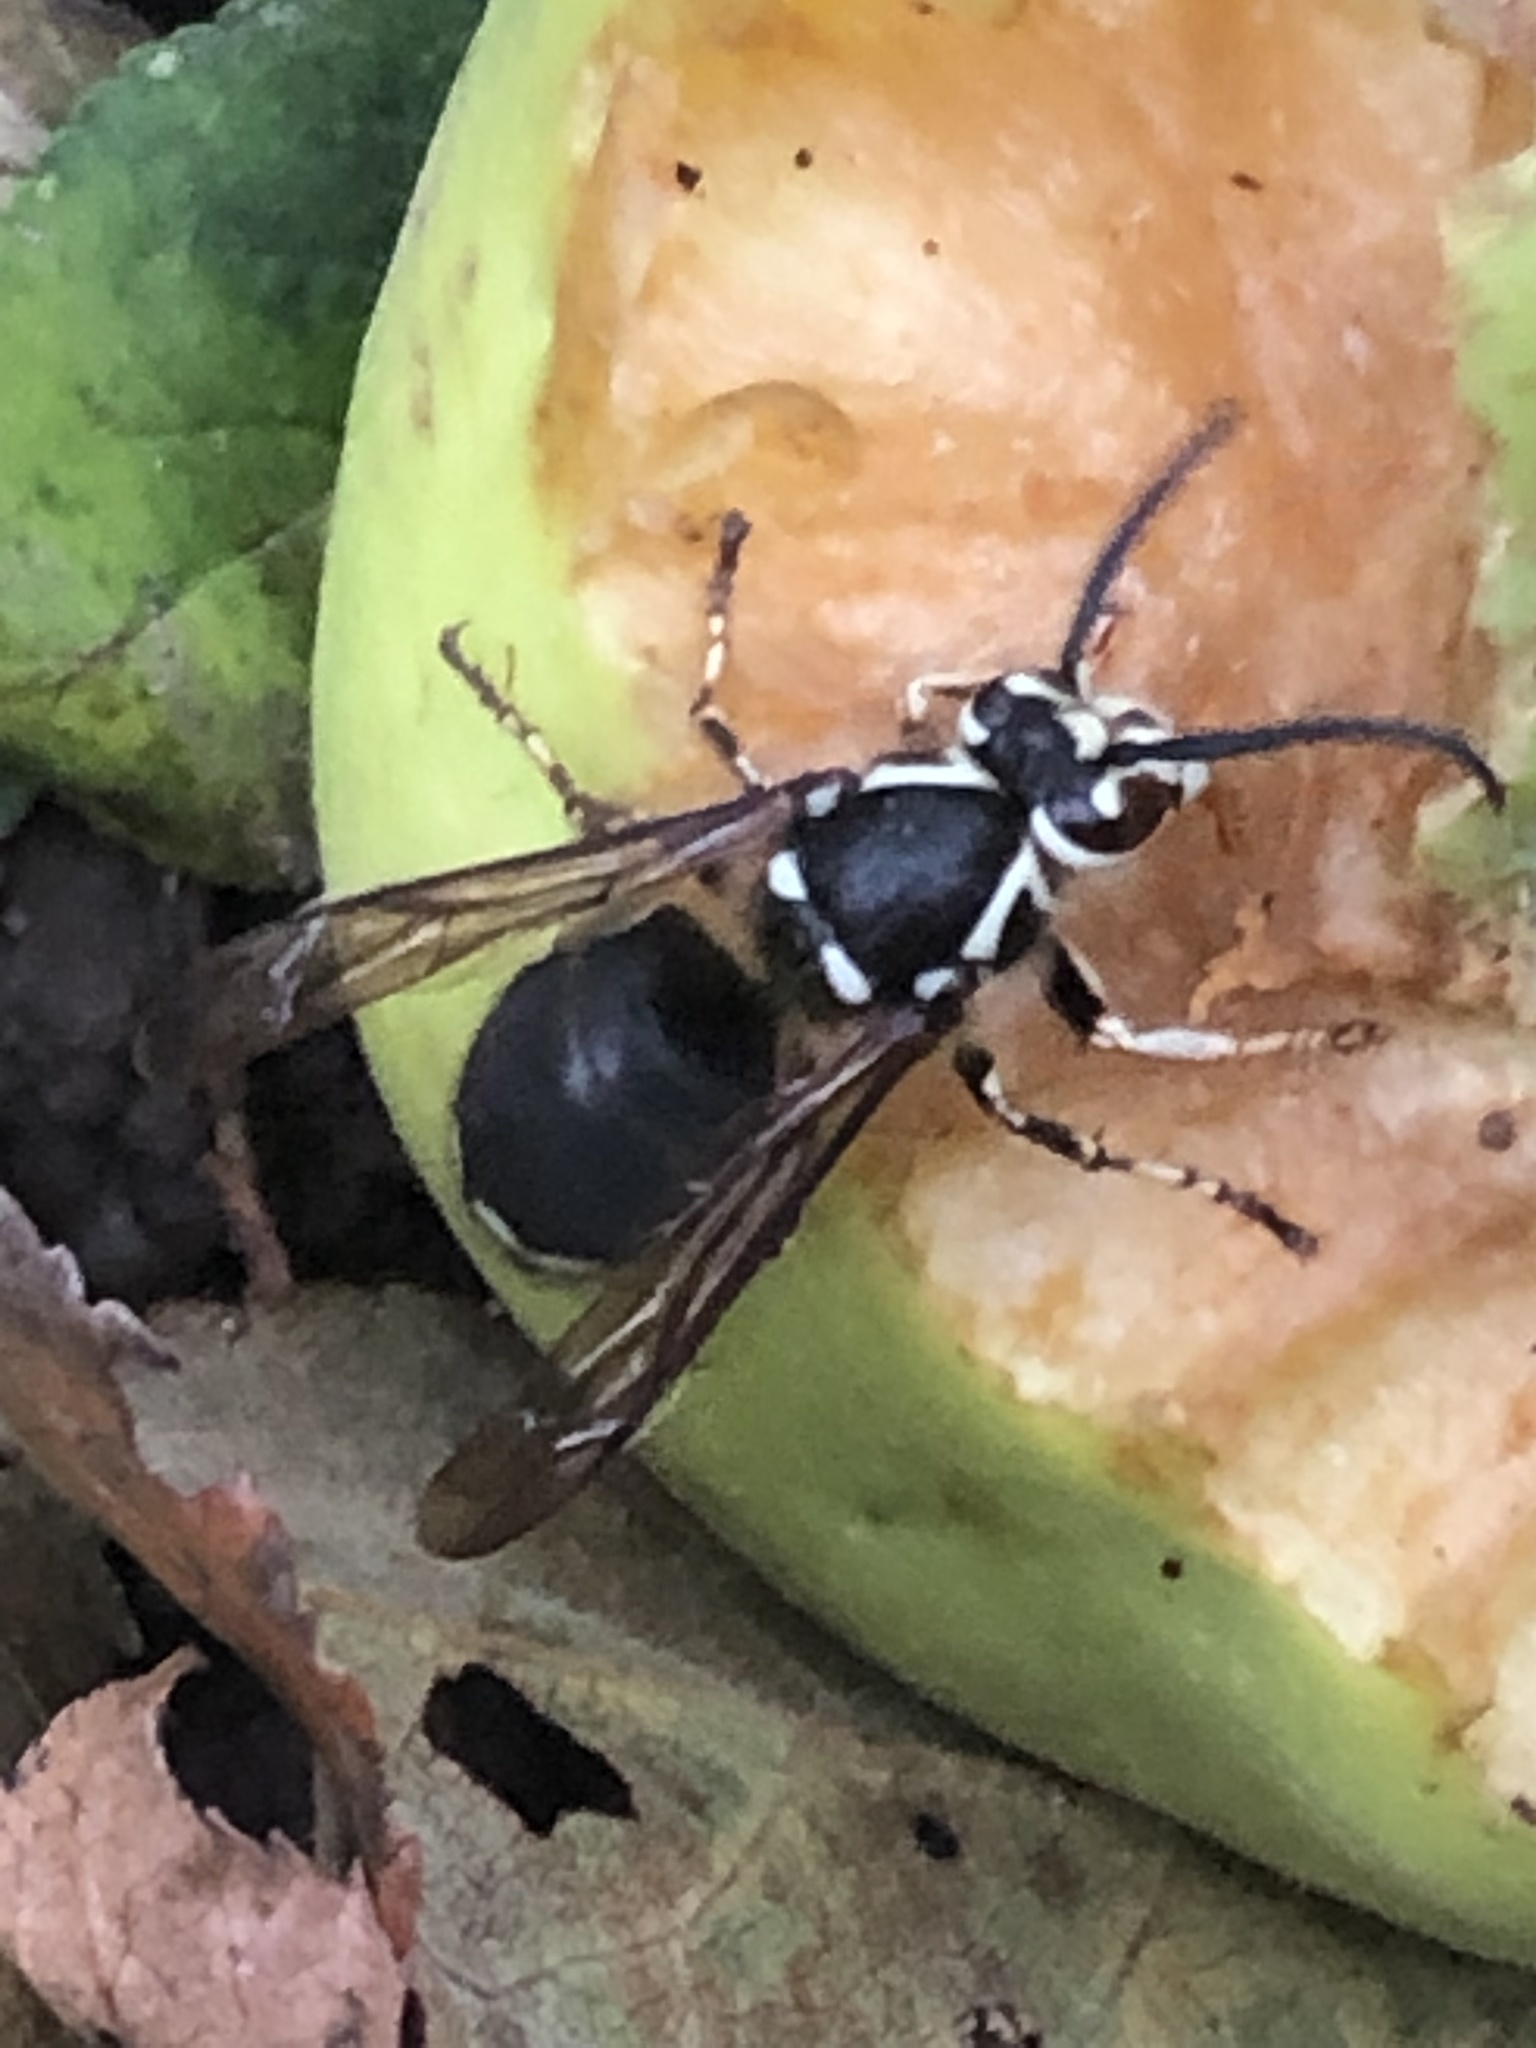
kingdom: Animalia
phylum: Arthropoda
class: Insecta
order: Hymenoptera
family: Vespidae
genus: Dolichovespula
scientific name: Dolichovespula maculata
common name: Bald-faced hornet
